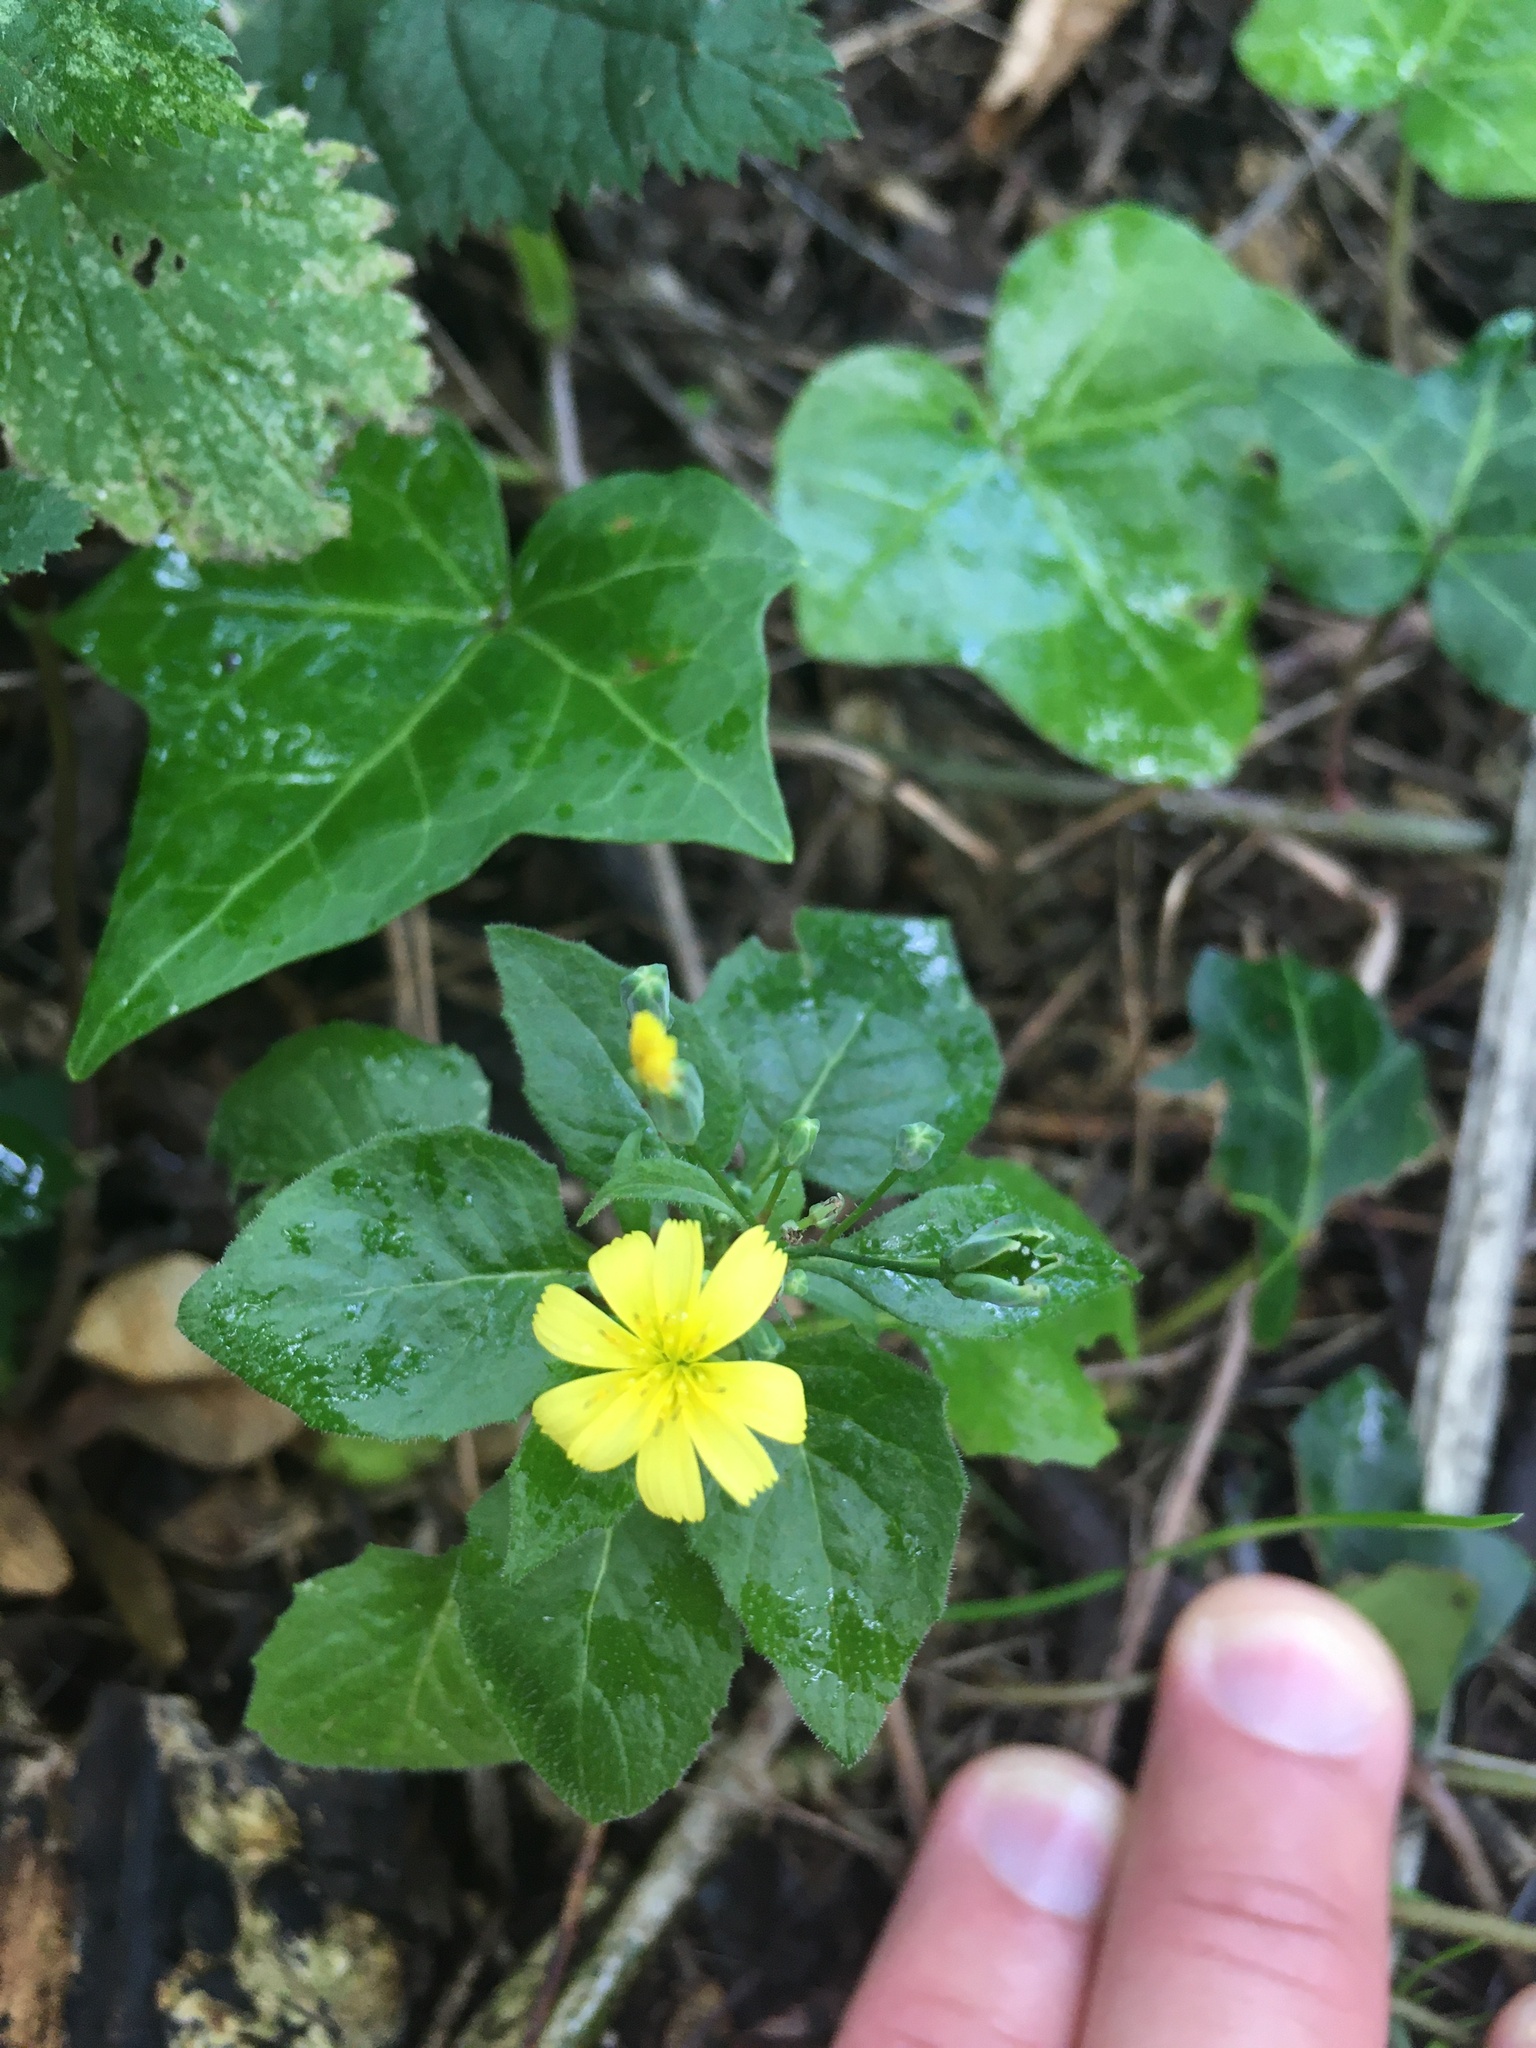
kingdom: Plantae
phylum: Tracheophyta
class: Magnoliopsida
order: Asterales
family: Asteraceae
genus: Lapsana
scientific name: Lapsana communis
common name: Nipplewort
